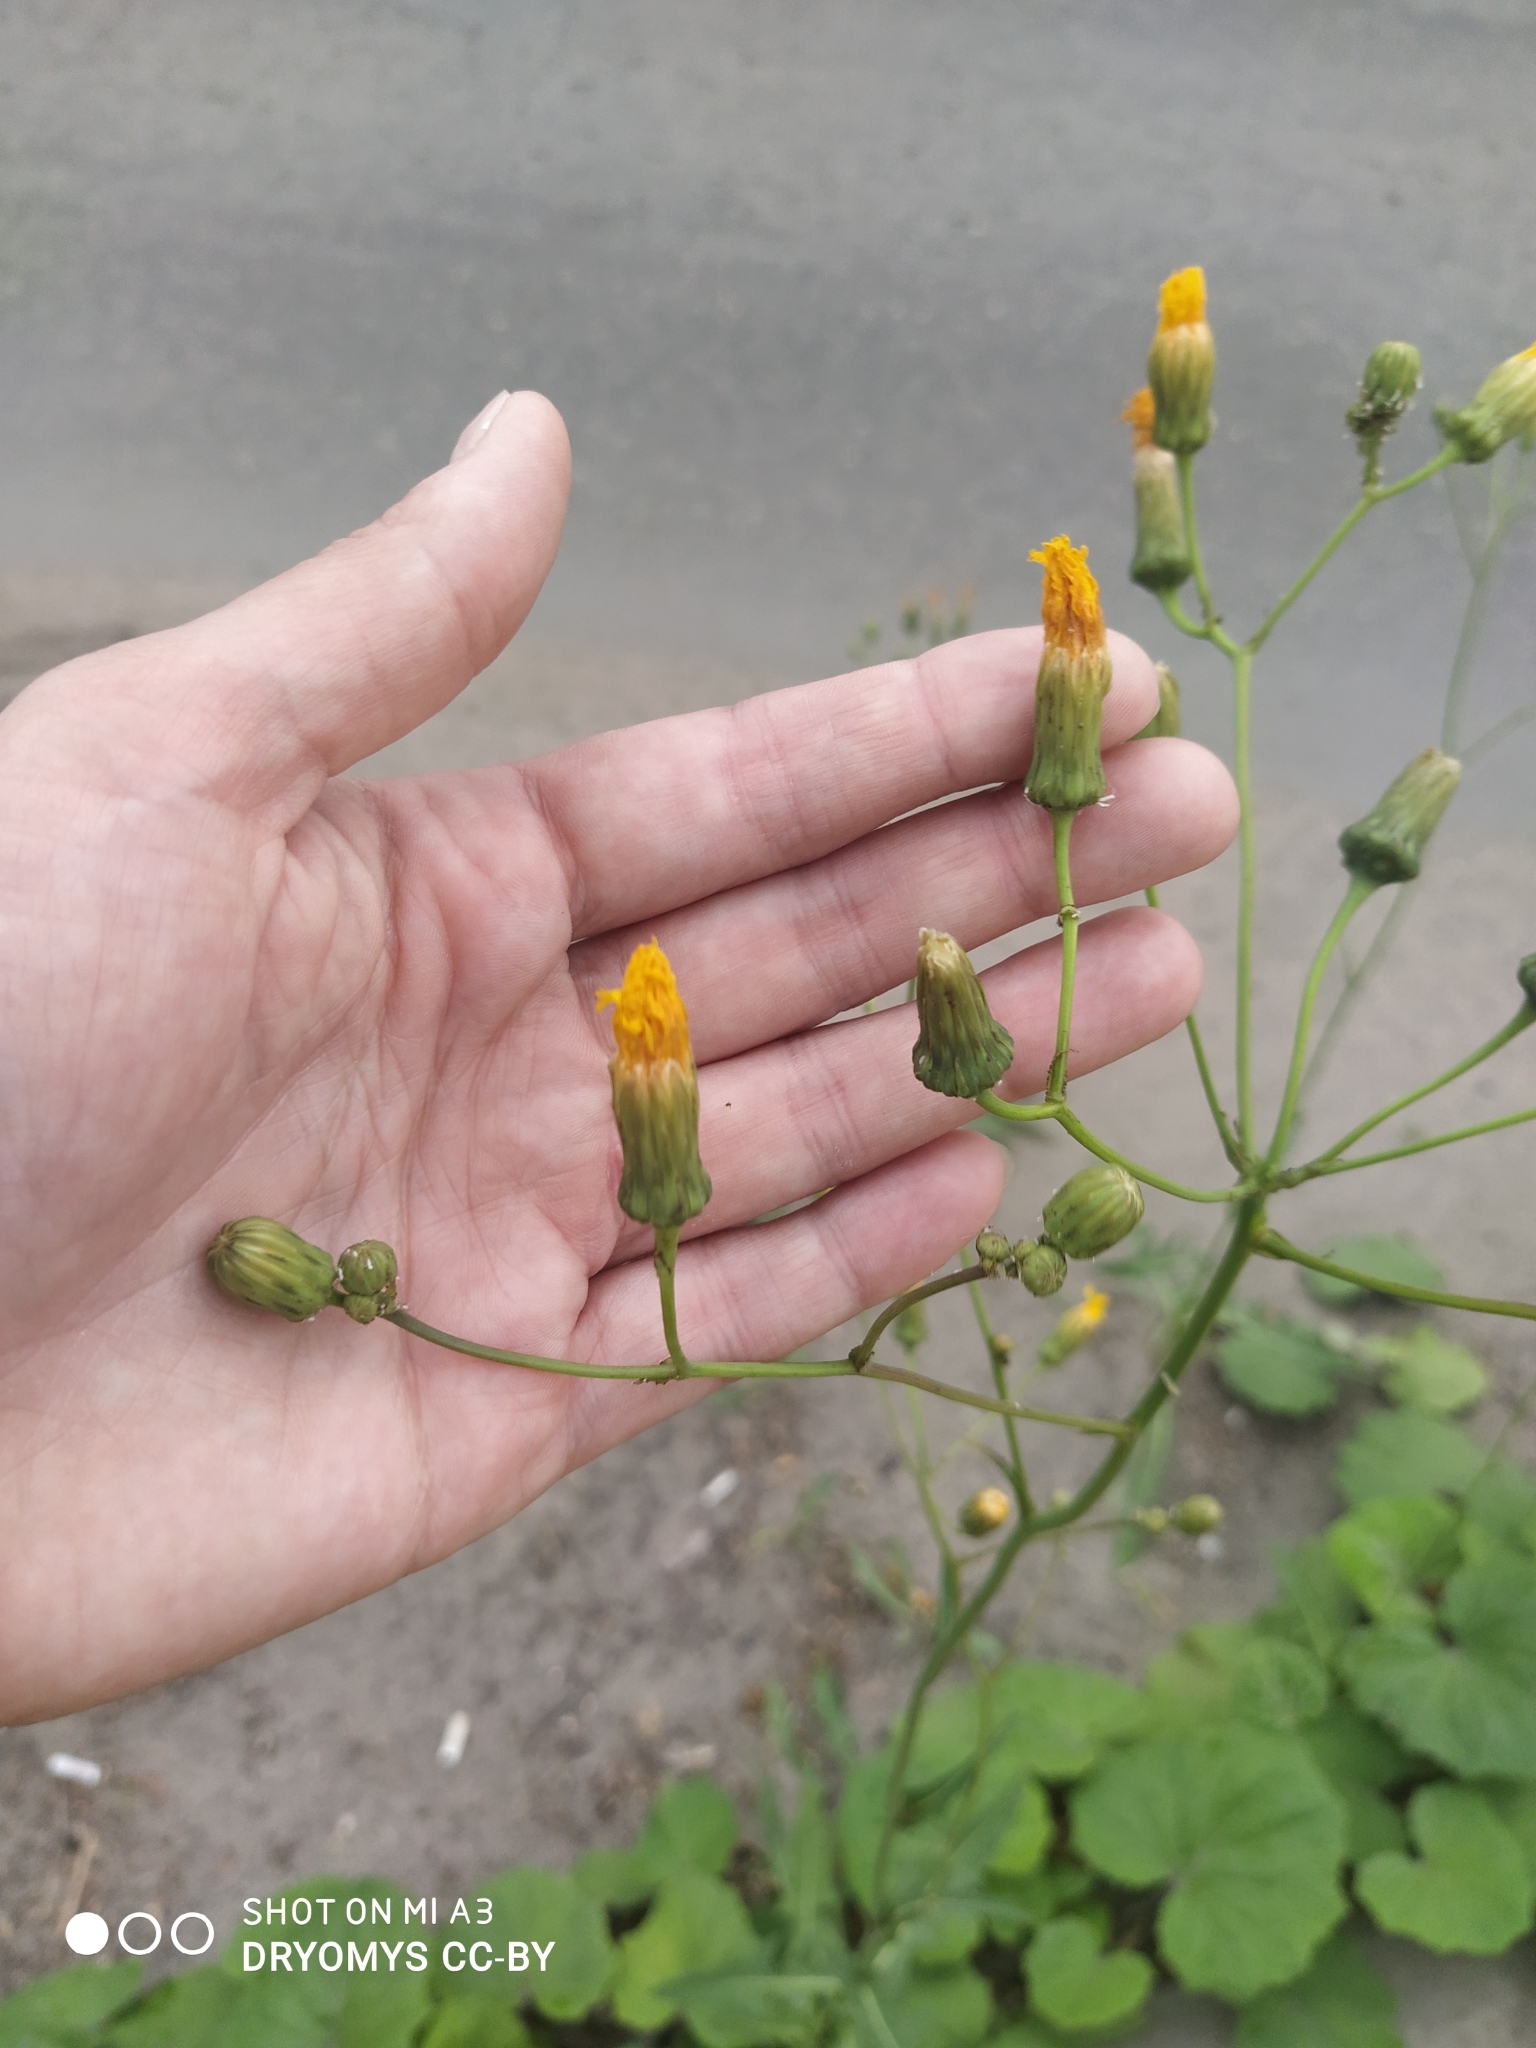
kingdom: Plantae
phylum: Tracheophyta
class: Magnoliopsida
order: Asterales
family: Asteraceae
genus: Sonchus
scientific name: Sonchus arvensis
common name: Perennial sow-thistle
